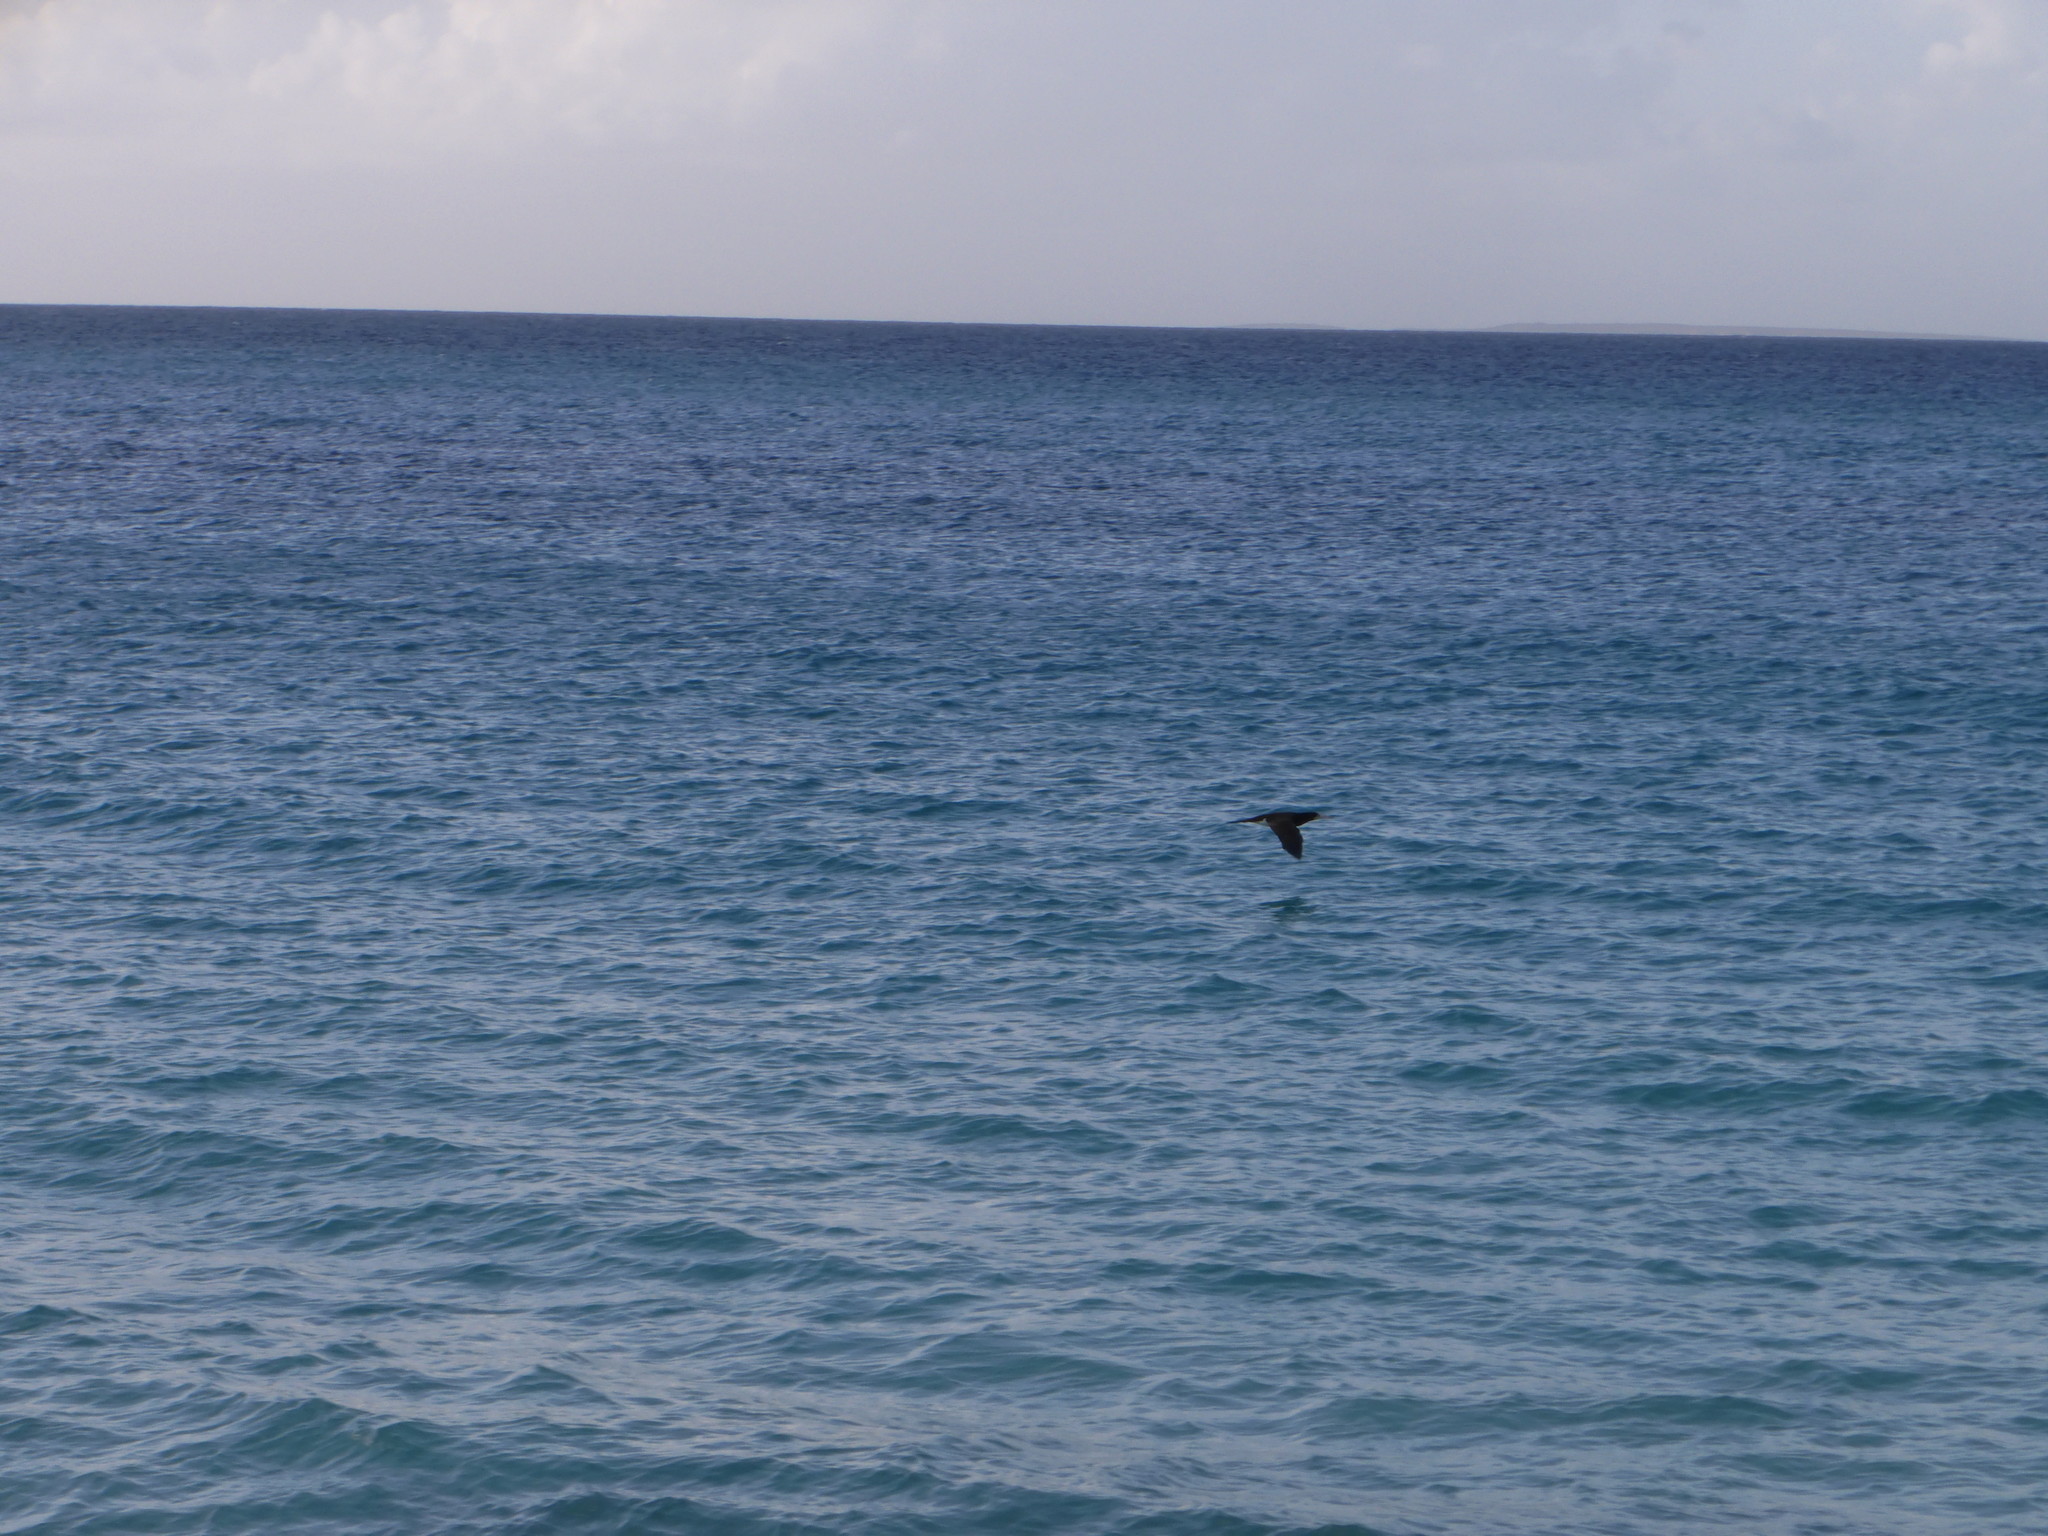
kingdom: Animalia
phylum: Chordata
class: Aves
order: Suliformes
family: Sulidae
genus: Sula
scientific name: Sula leucogaster
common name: Brown booby
